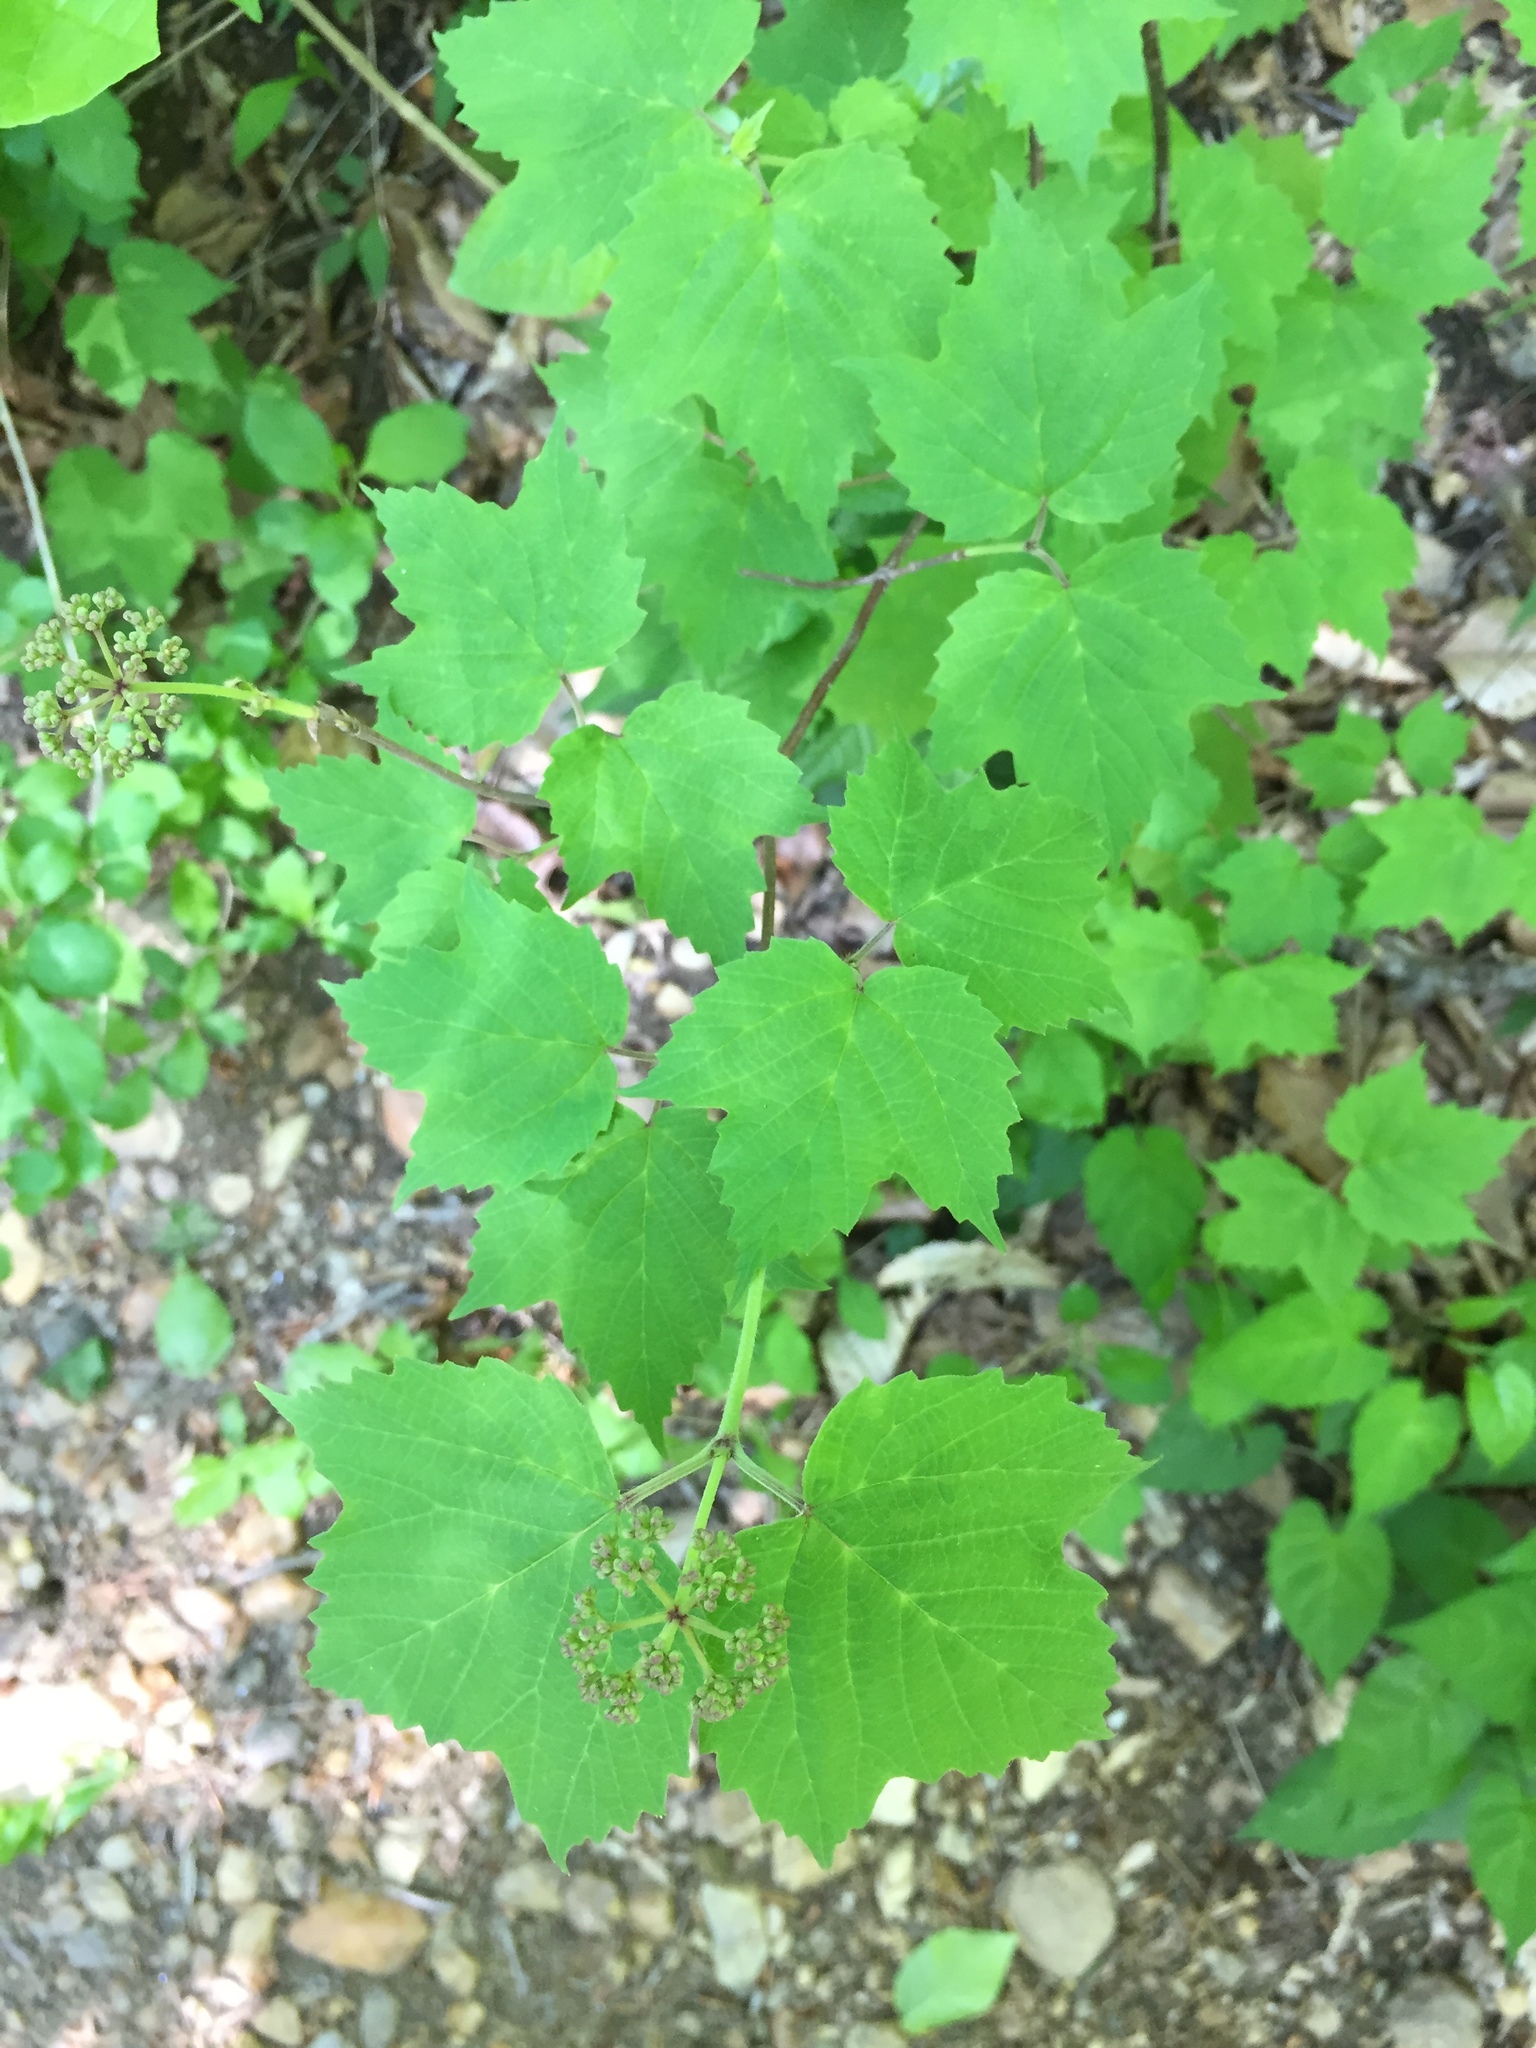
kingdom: Plantae
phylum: Tracheophyta
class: Magnoliopsida
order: Dipsacales
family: Viburnaceae
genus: Viburnum
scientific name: Viburnum acerifolium
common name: Dockmackie
